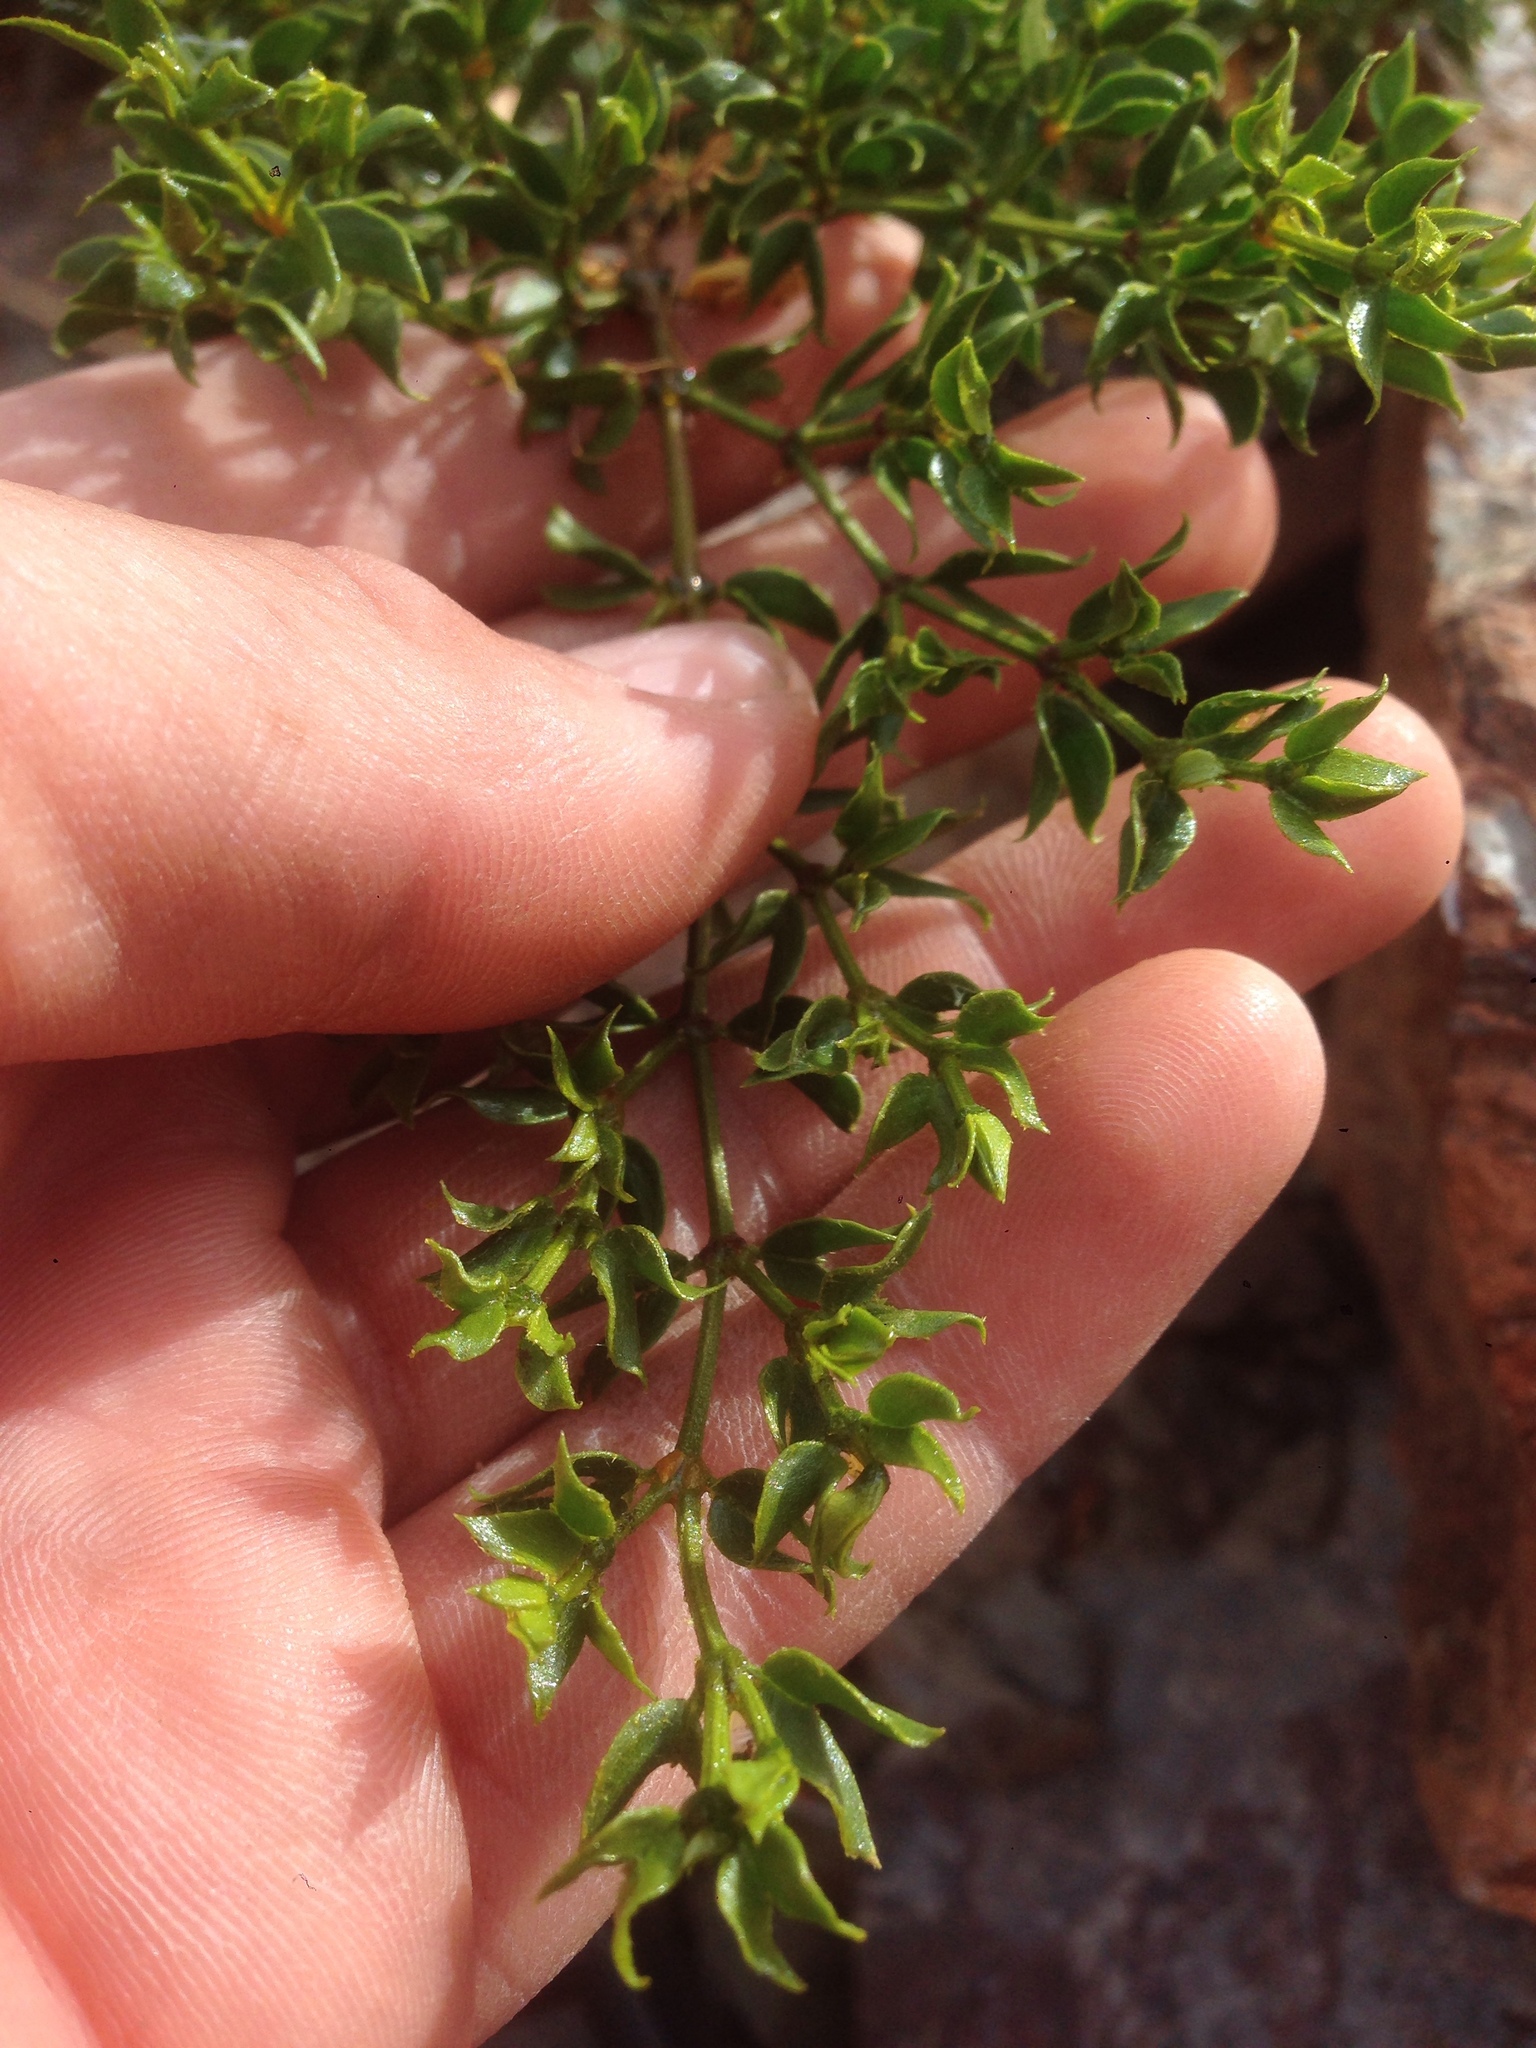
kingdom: Plantae
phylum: Tracheophyta
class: Magnoliopsida
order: Zygophyllales
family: Zygophyllaceae
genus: Larrea
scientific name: Larrea tridentata
